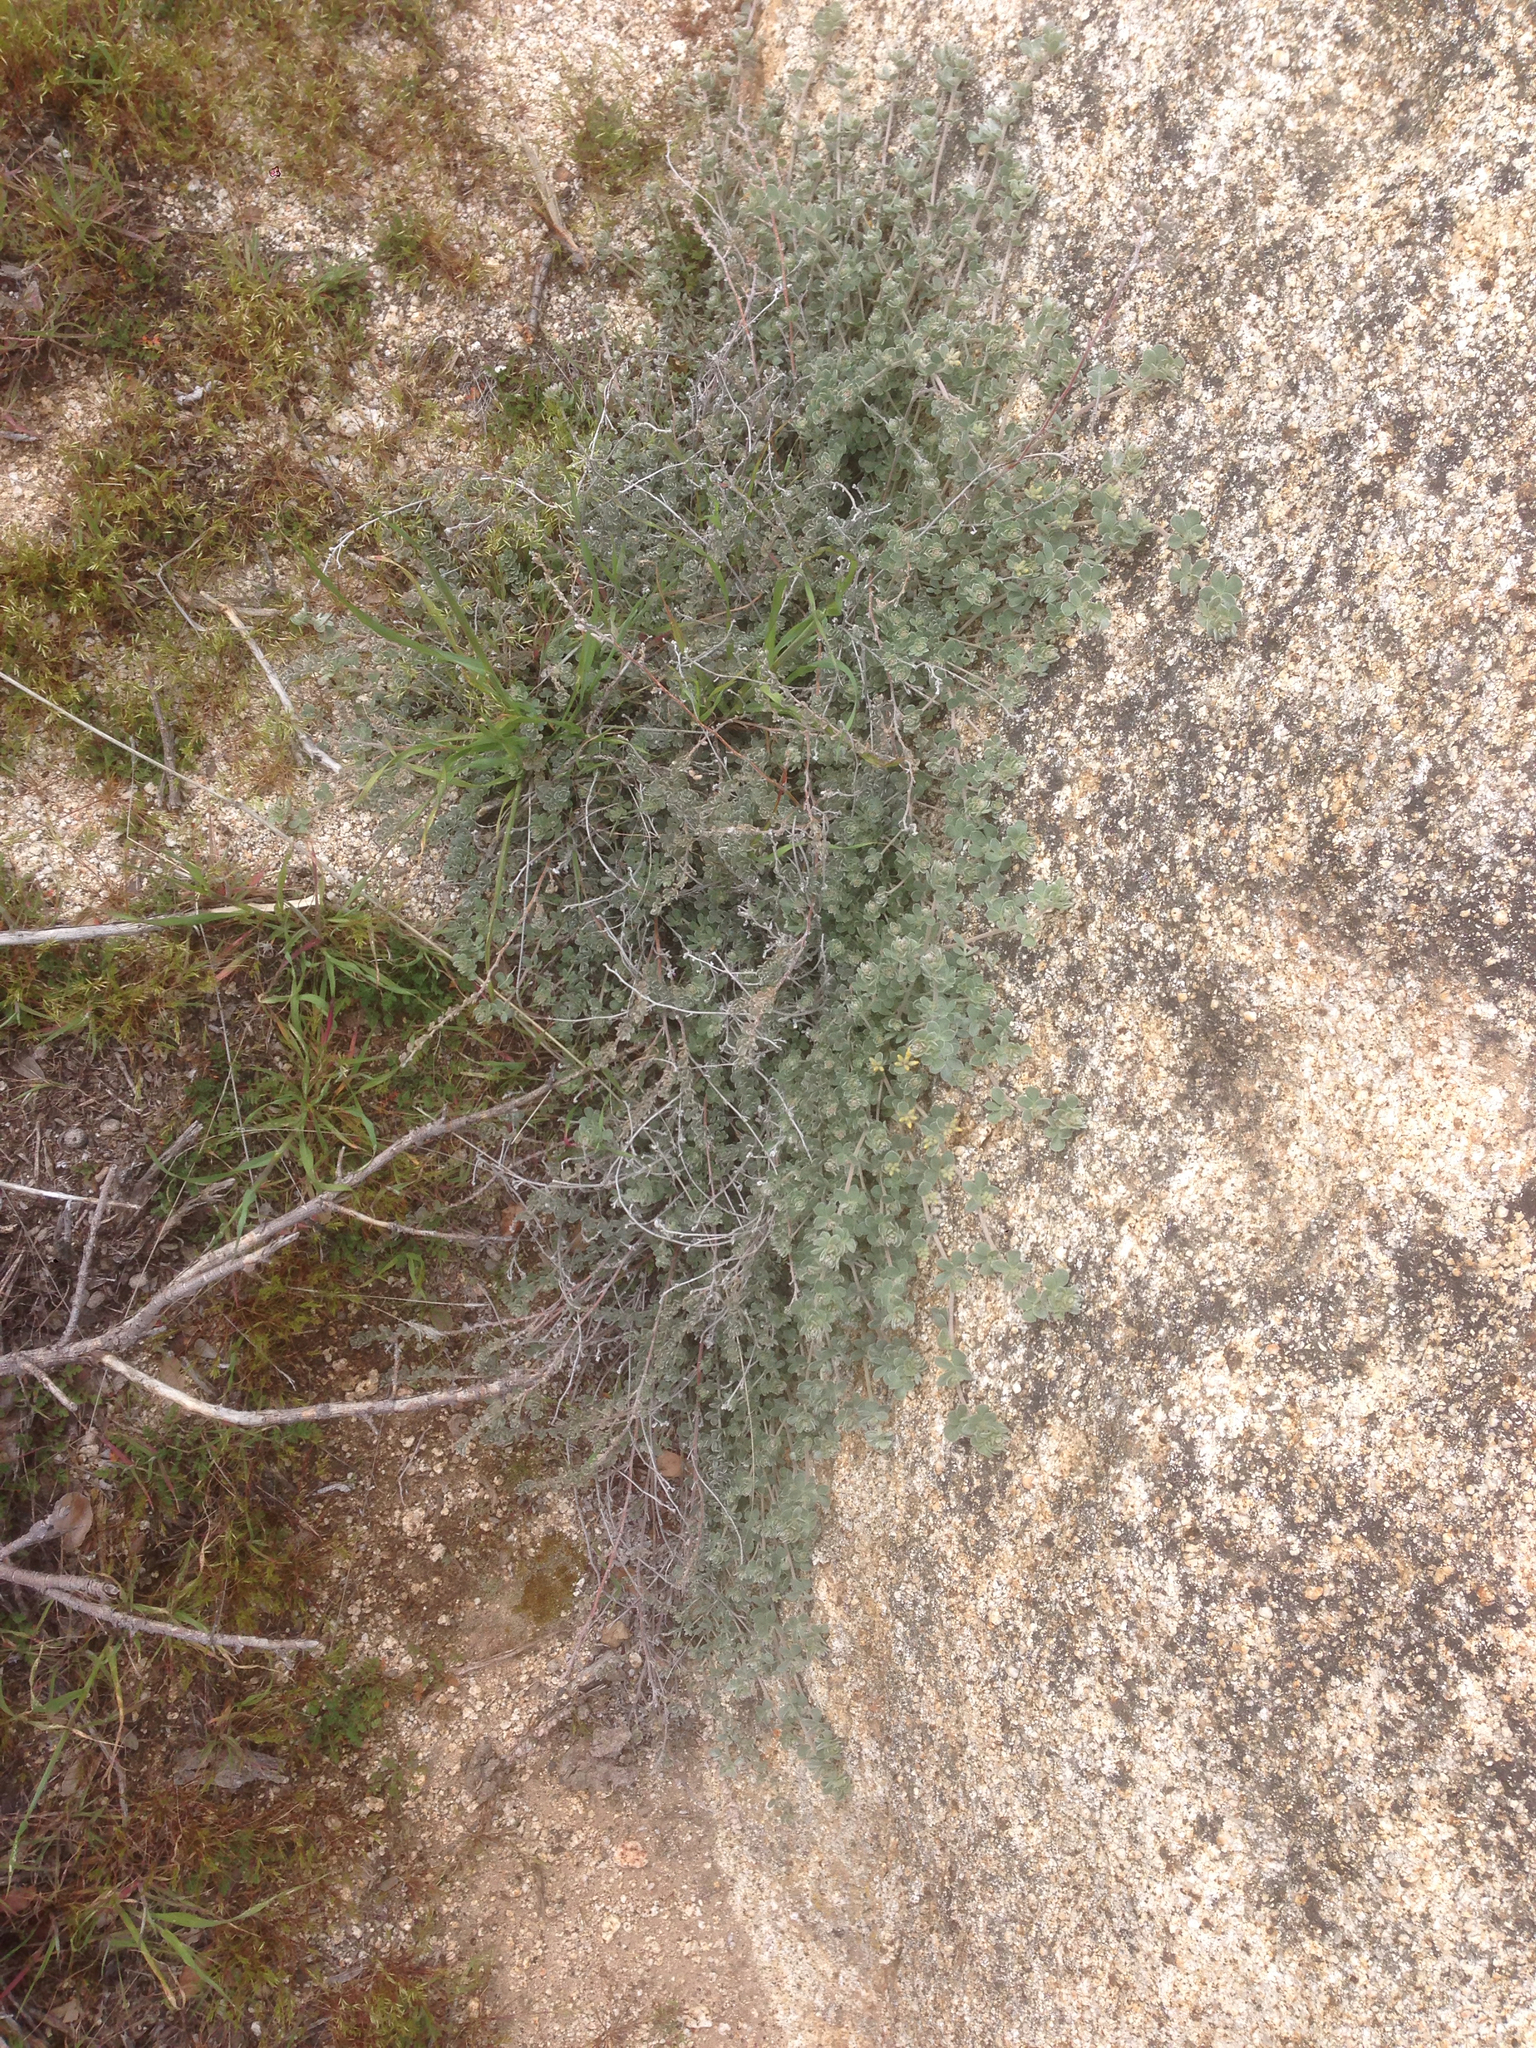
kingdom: Plantae
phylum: Tracheophyta
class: Magnoliopsida
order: Fabales
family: Fabaceae
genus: Acmispon
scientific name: Acmispon argophyllus
